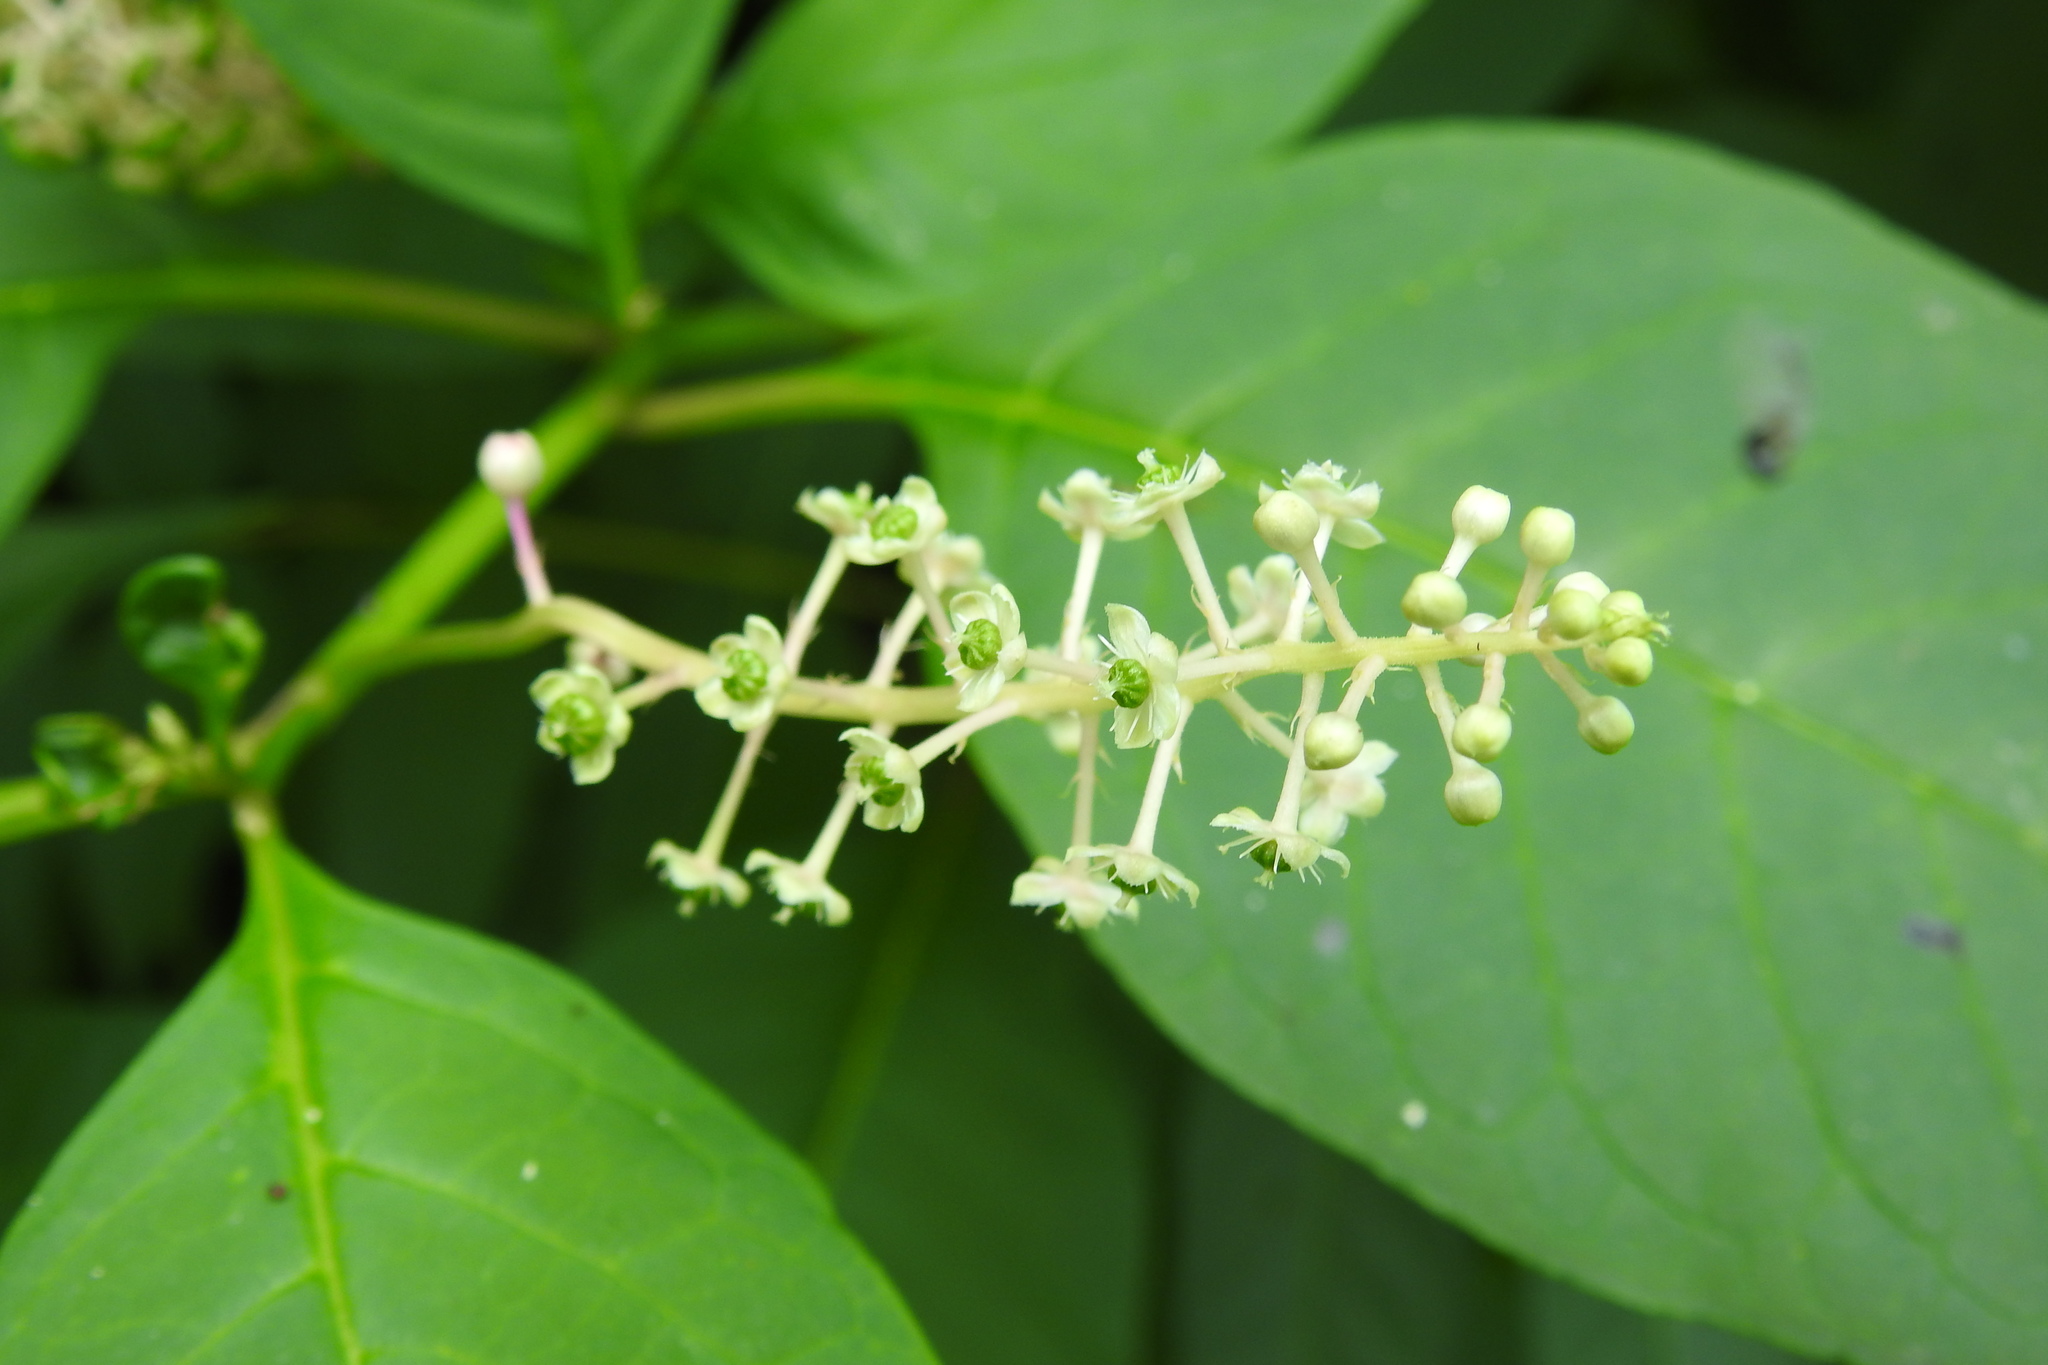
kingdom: Plantae
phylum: Tracheophyta
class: Magnoliopsida
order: Caryophyllales
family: Phytolaccaceae
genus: Phytolacca
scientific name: Phytolacca americana
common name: American pokeweed
